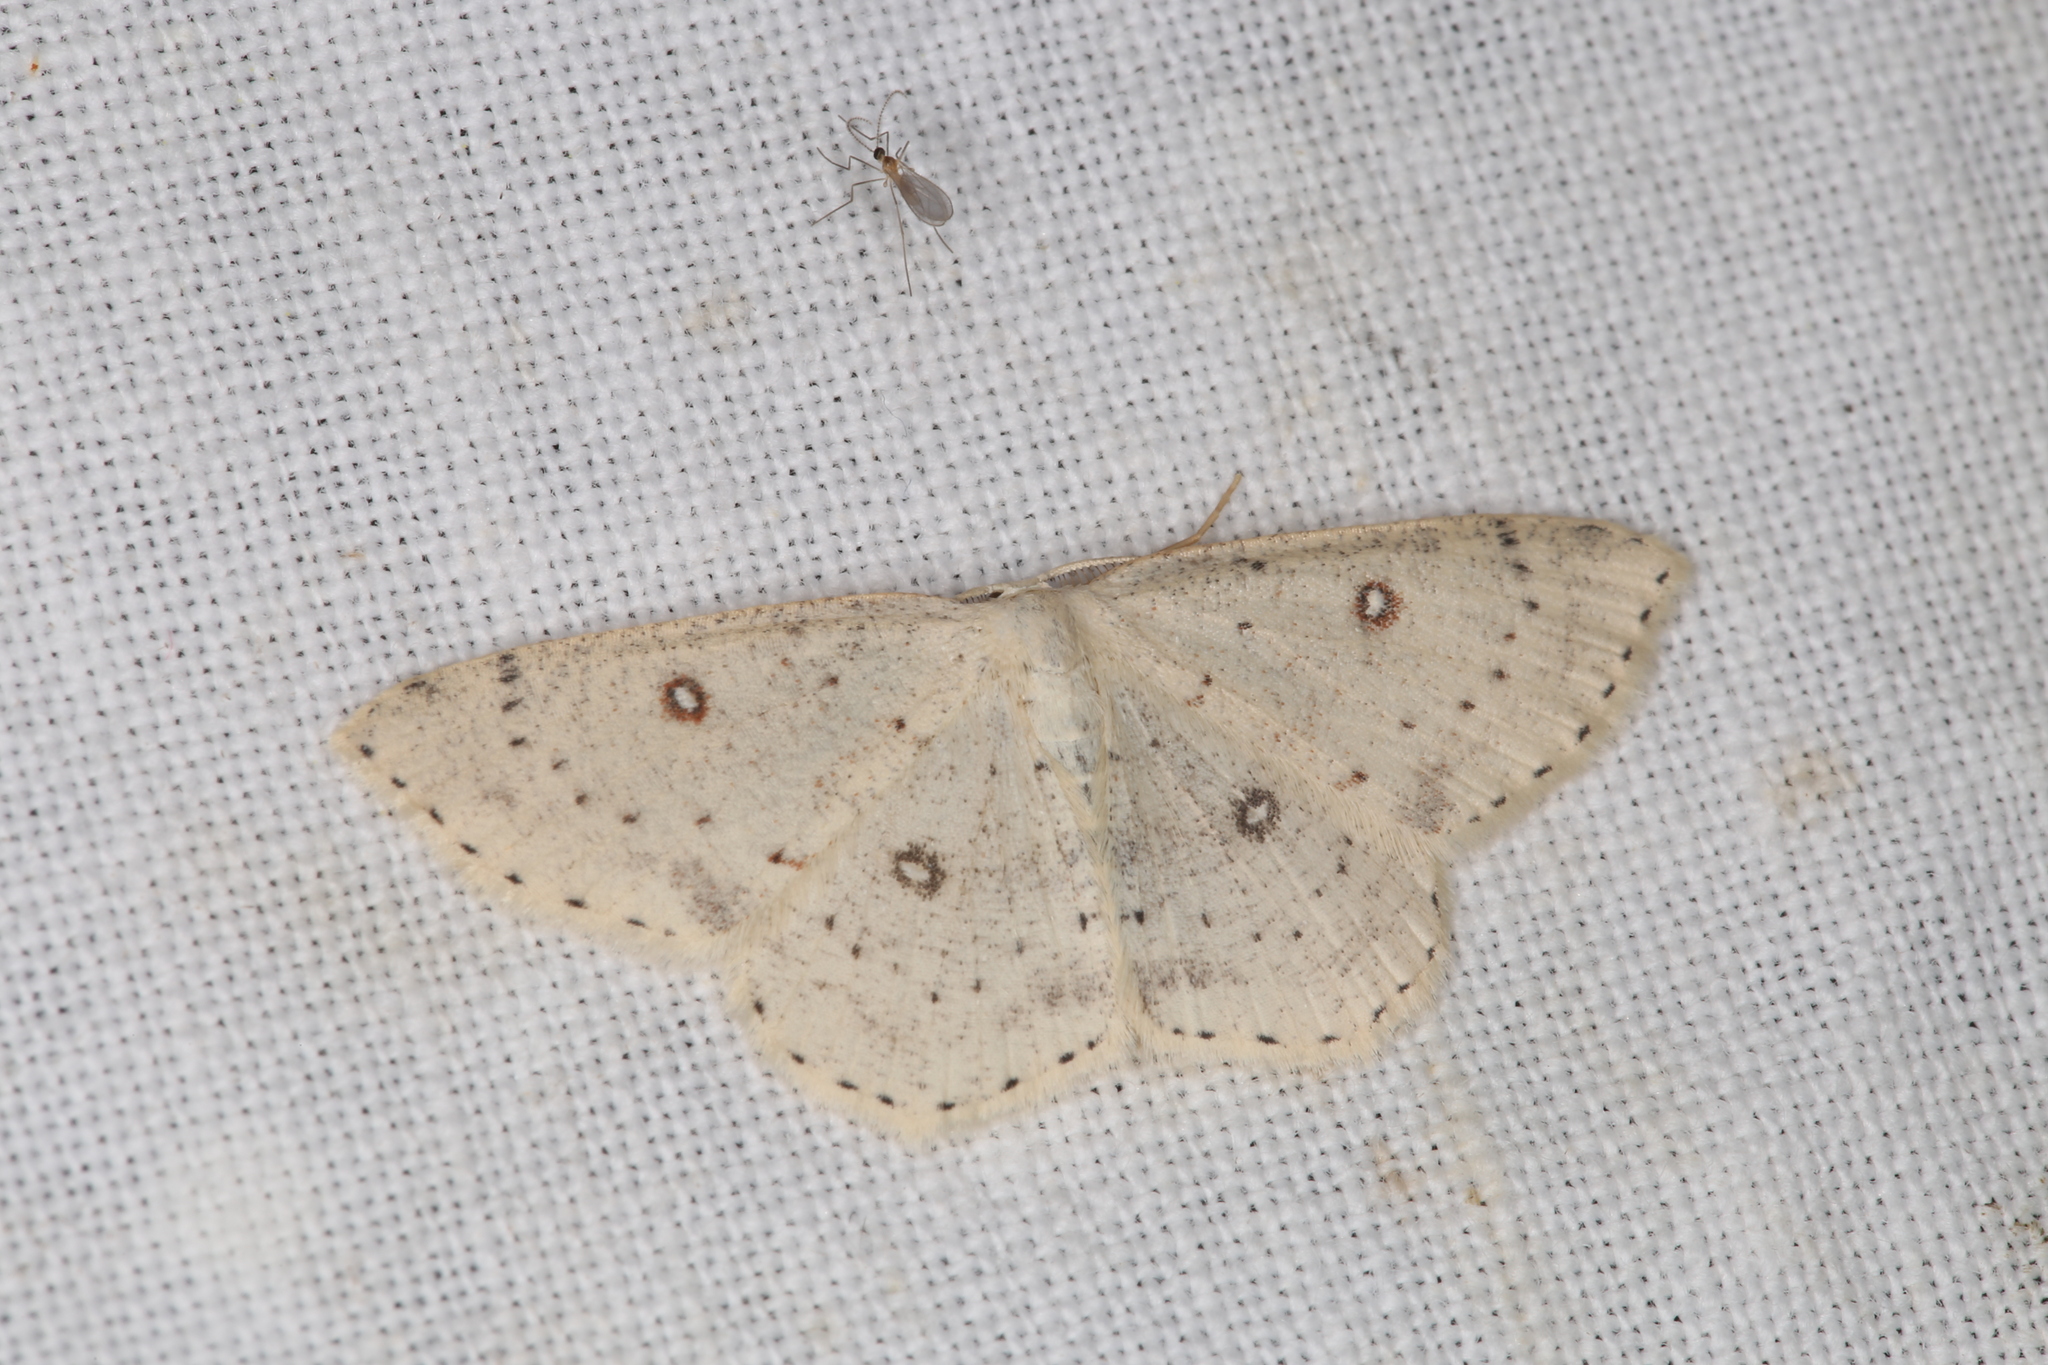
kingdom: Animalia
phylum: Arthropoda
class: Insecta
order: Lepidoptera
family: Geometridae
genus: Cyclophora
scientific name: Cyclophora albipunctata
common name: Birch mocha
